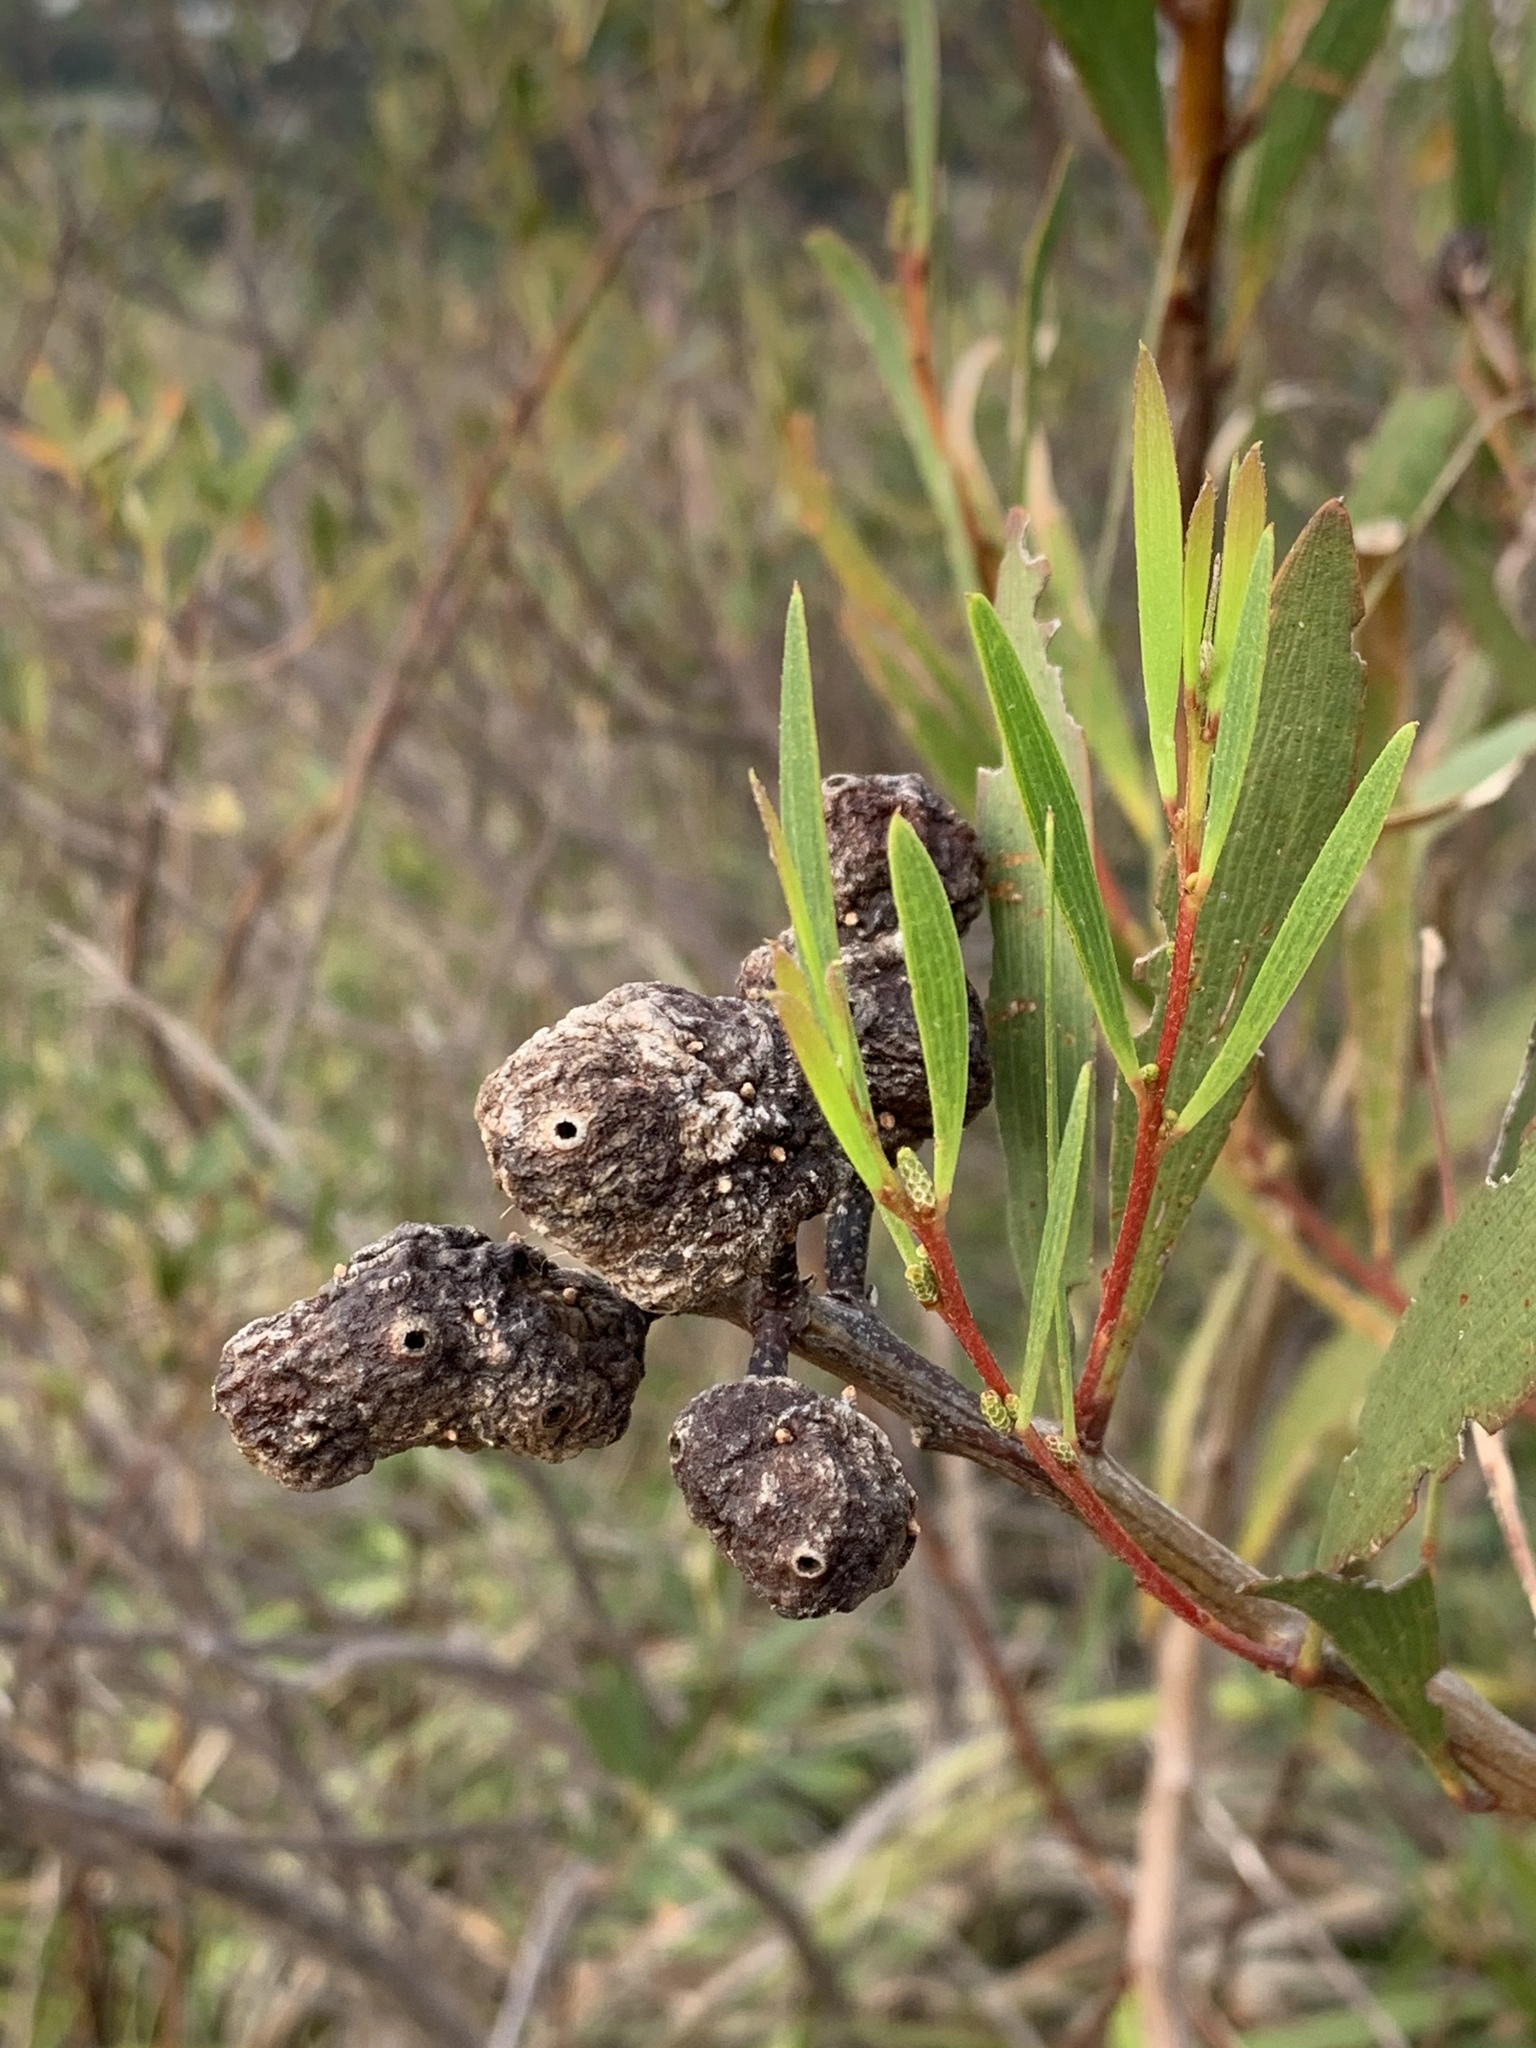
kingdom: Animalia
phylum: Arthropoda
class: Insecta
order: Hymenoptera
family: Pteromalidae
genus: Trichilogaster
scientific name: Trichilogaster acaciaelongifoliae
